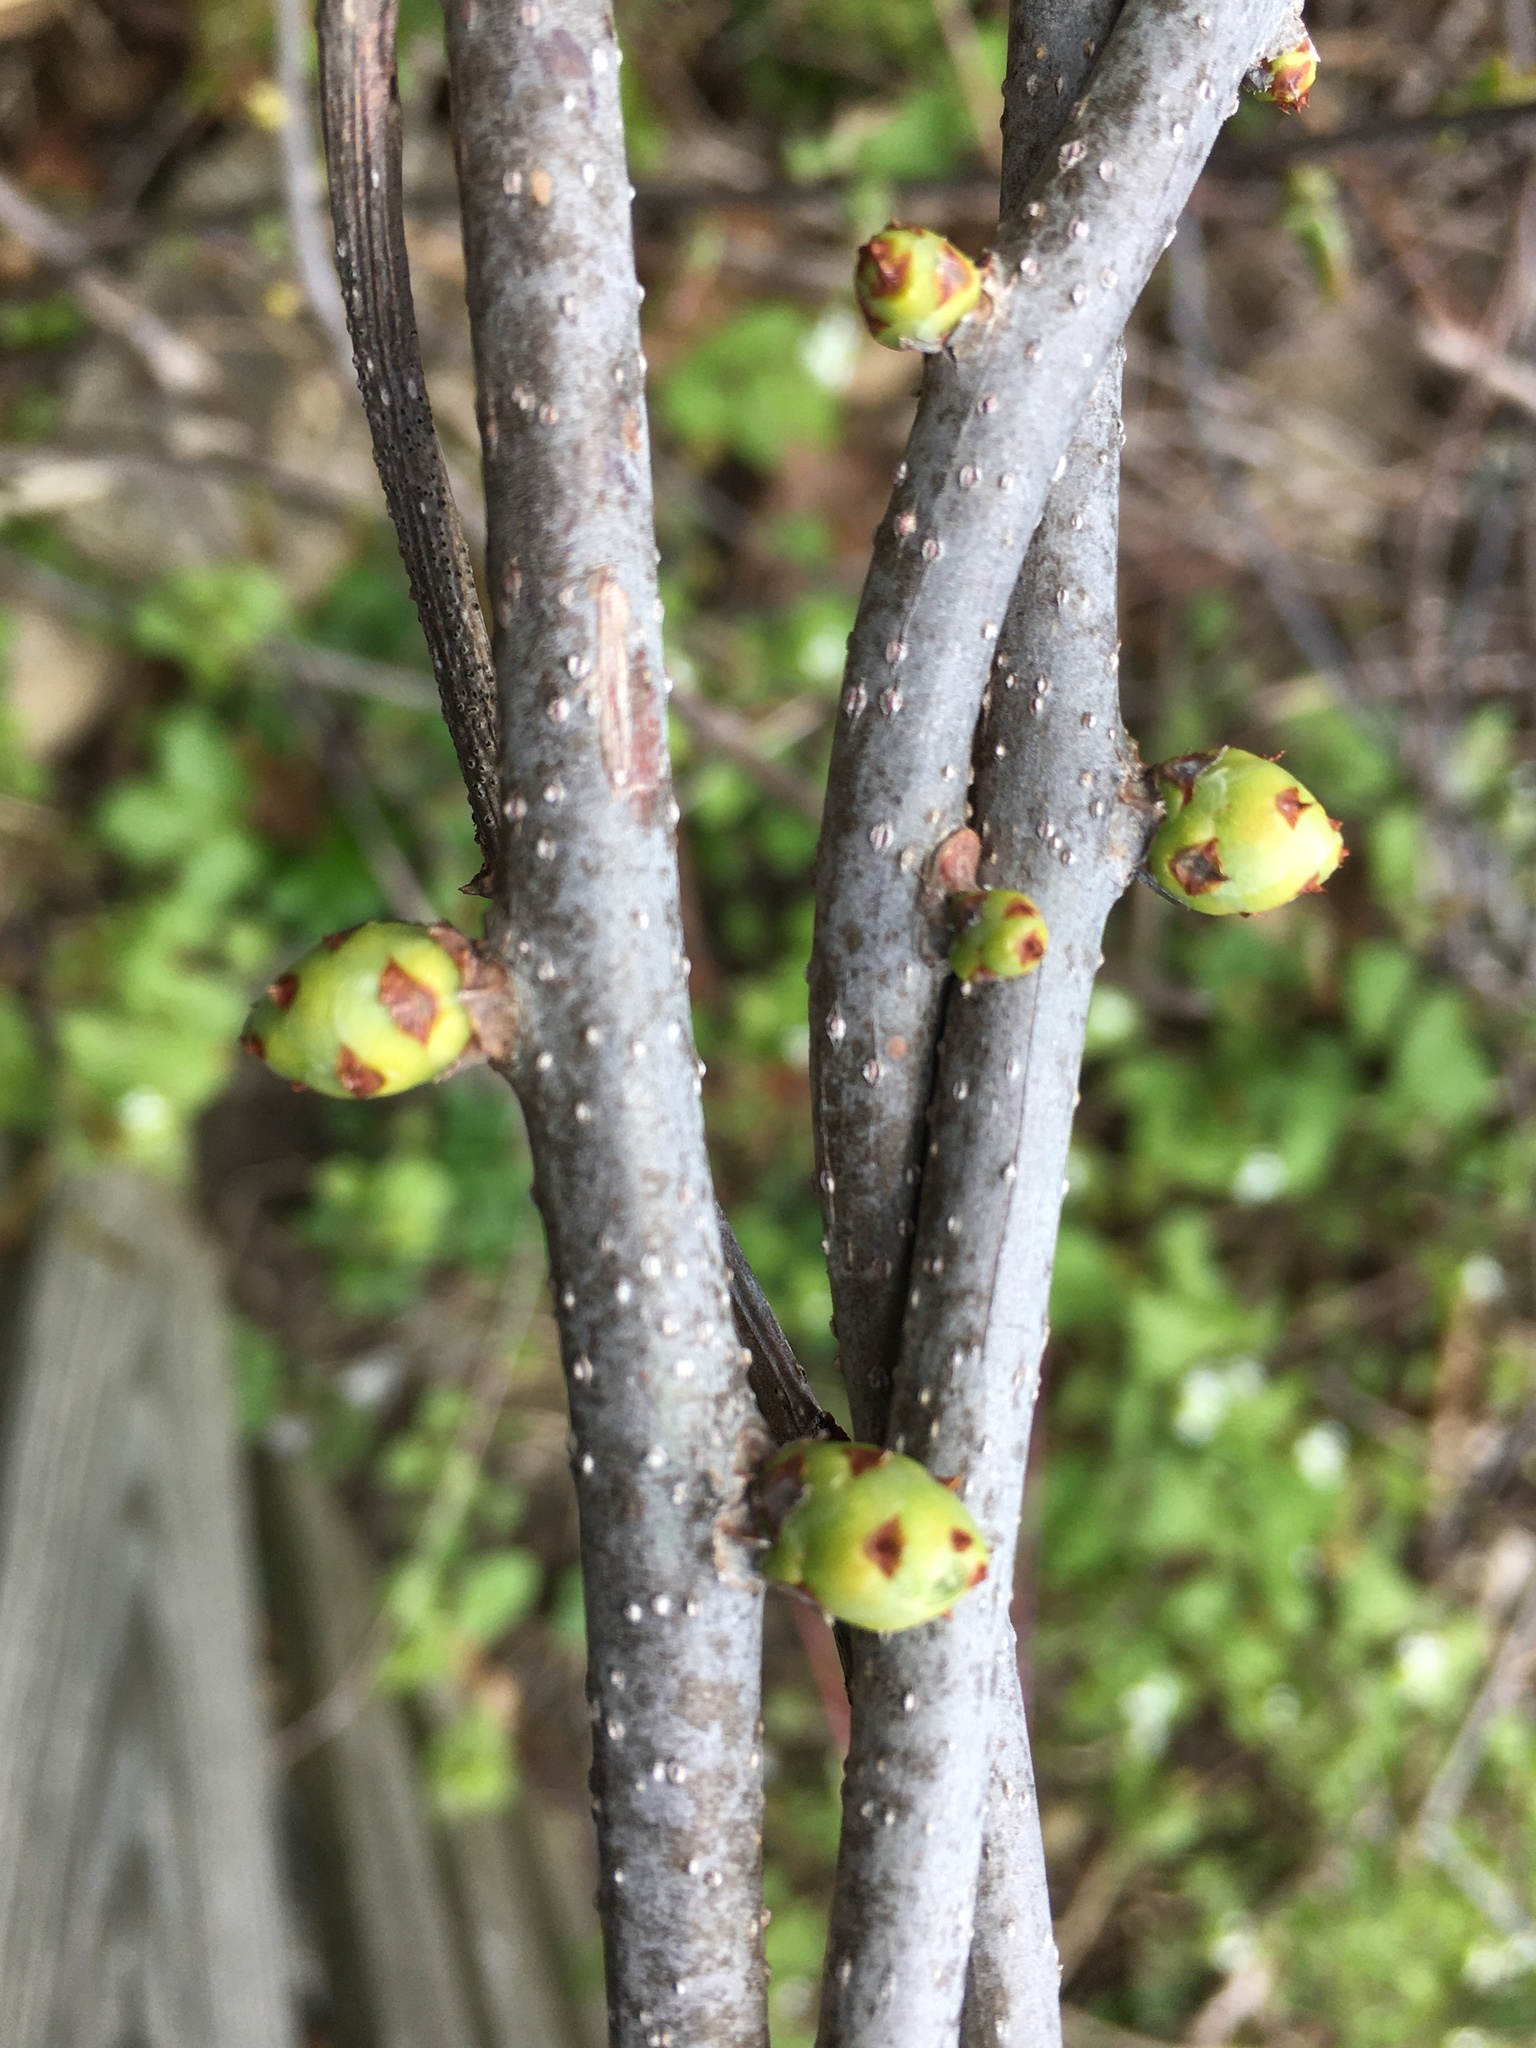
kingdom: Plantae
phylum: Tracheophyta
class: Magnoliopsida
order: Celastrales
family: Celastraceae
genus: Celastrus
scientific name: Celastrus orbiculatus
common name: Oriental bittersweet
